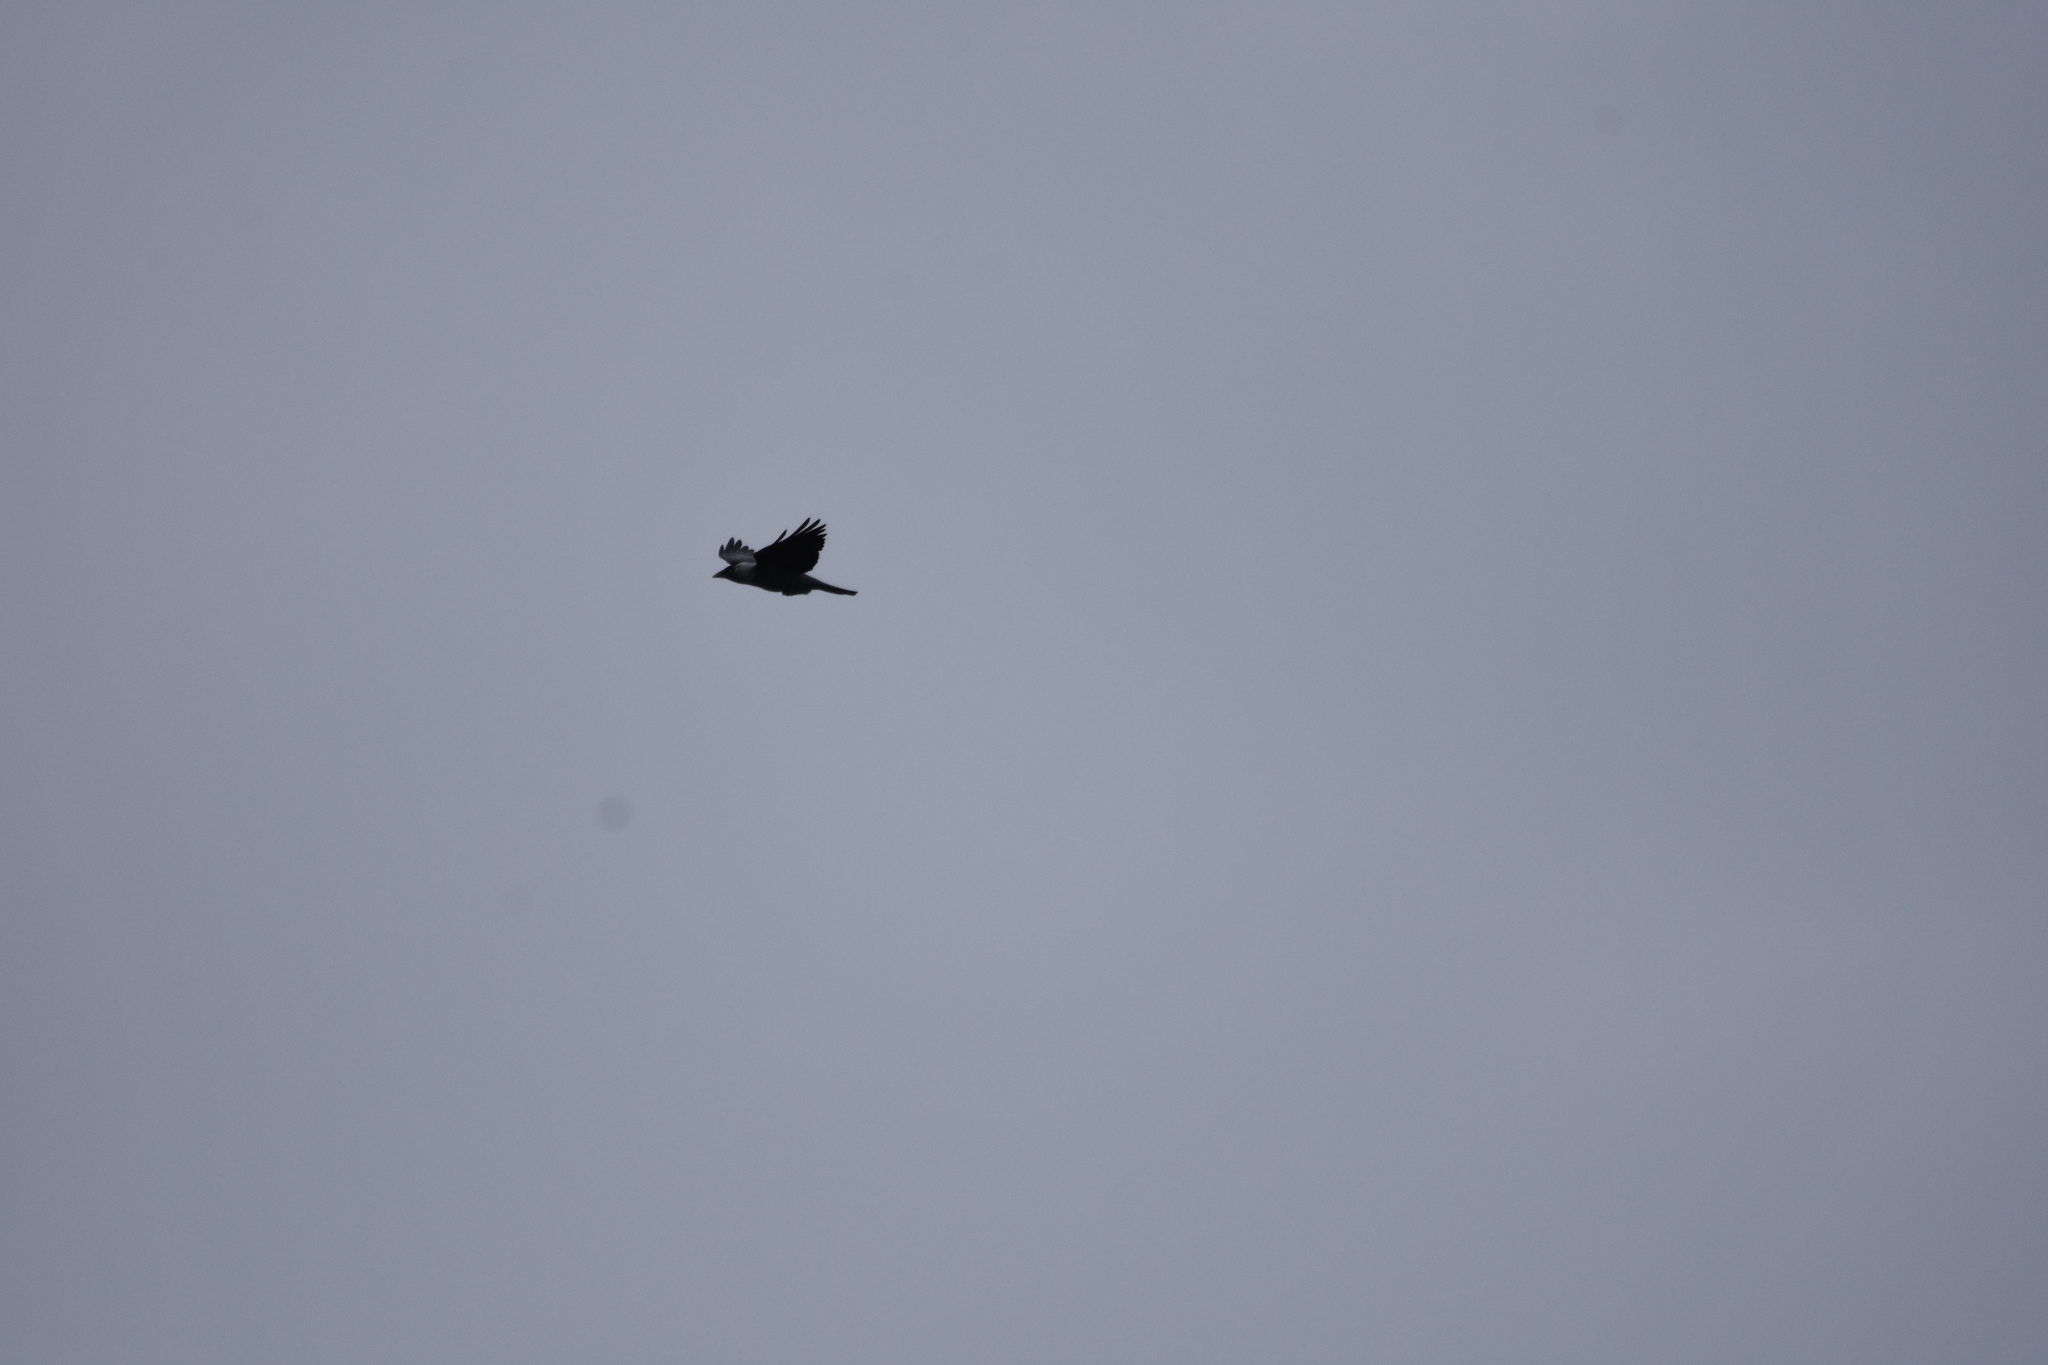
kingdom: Animalia
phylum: Chordata
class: Aves
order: Passeriformes
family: Corvidae
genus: Coloeus
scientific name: Coloeus monedula
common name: Western jackdaw
